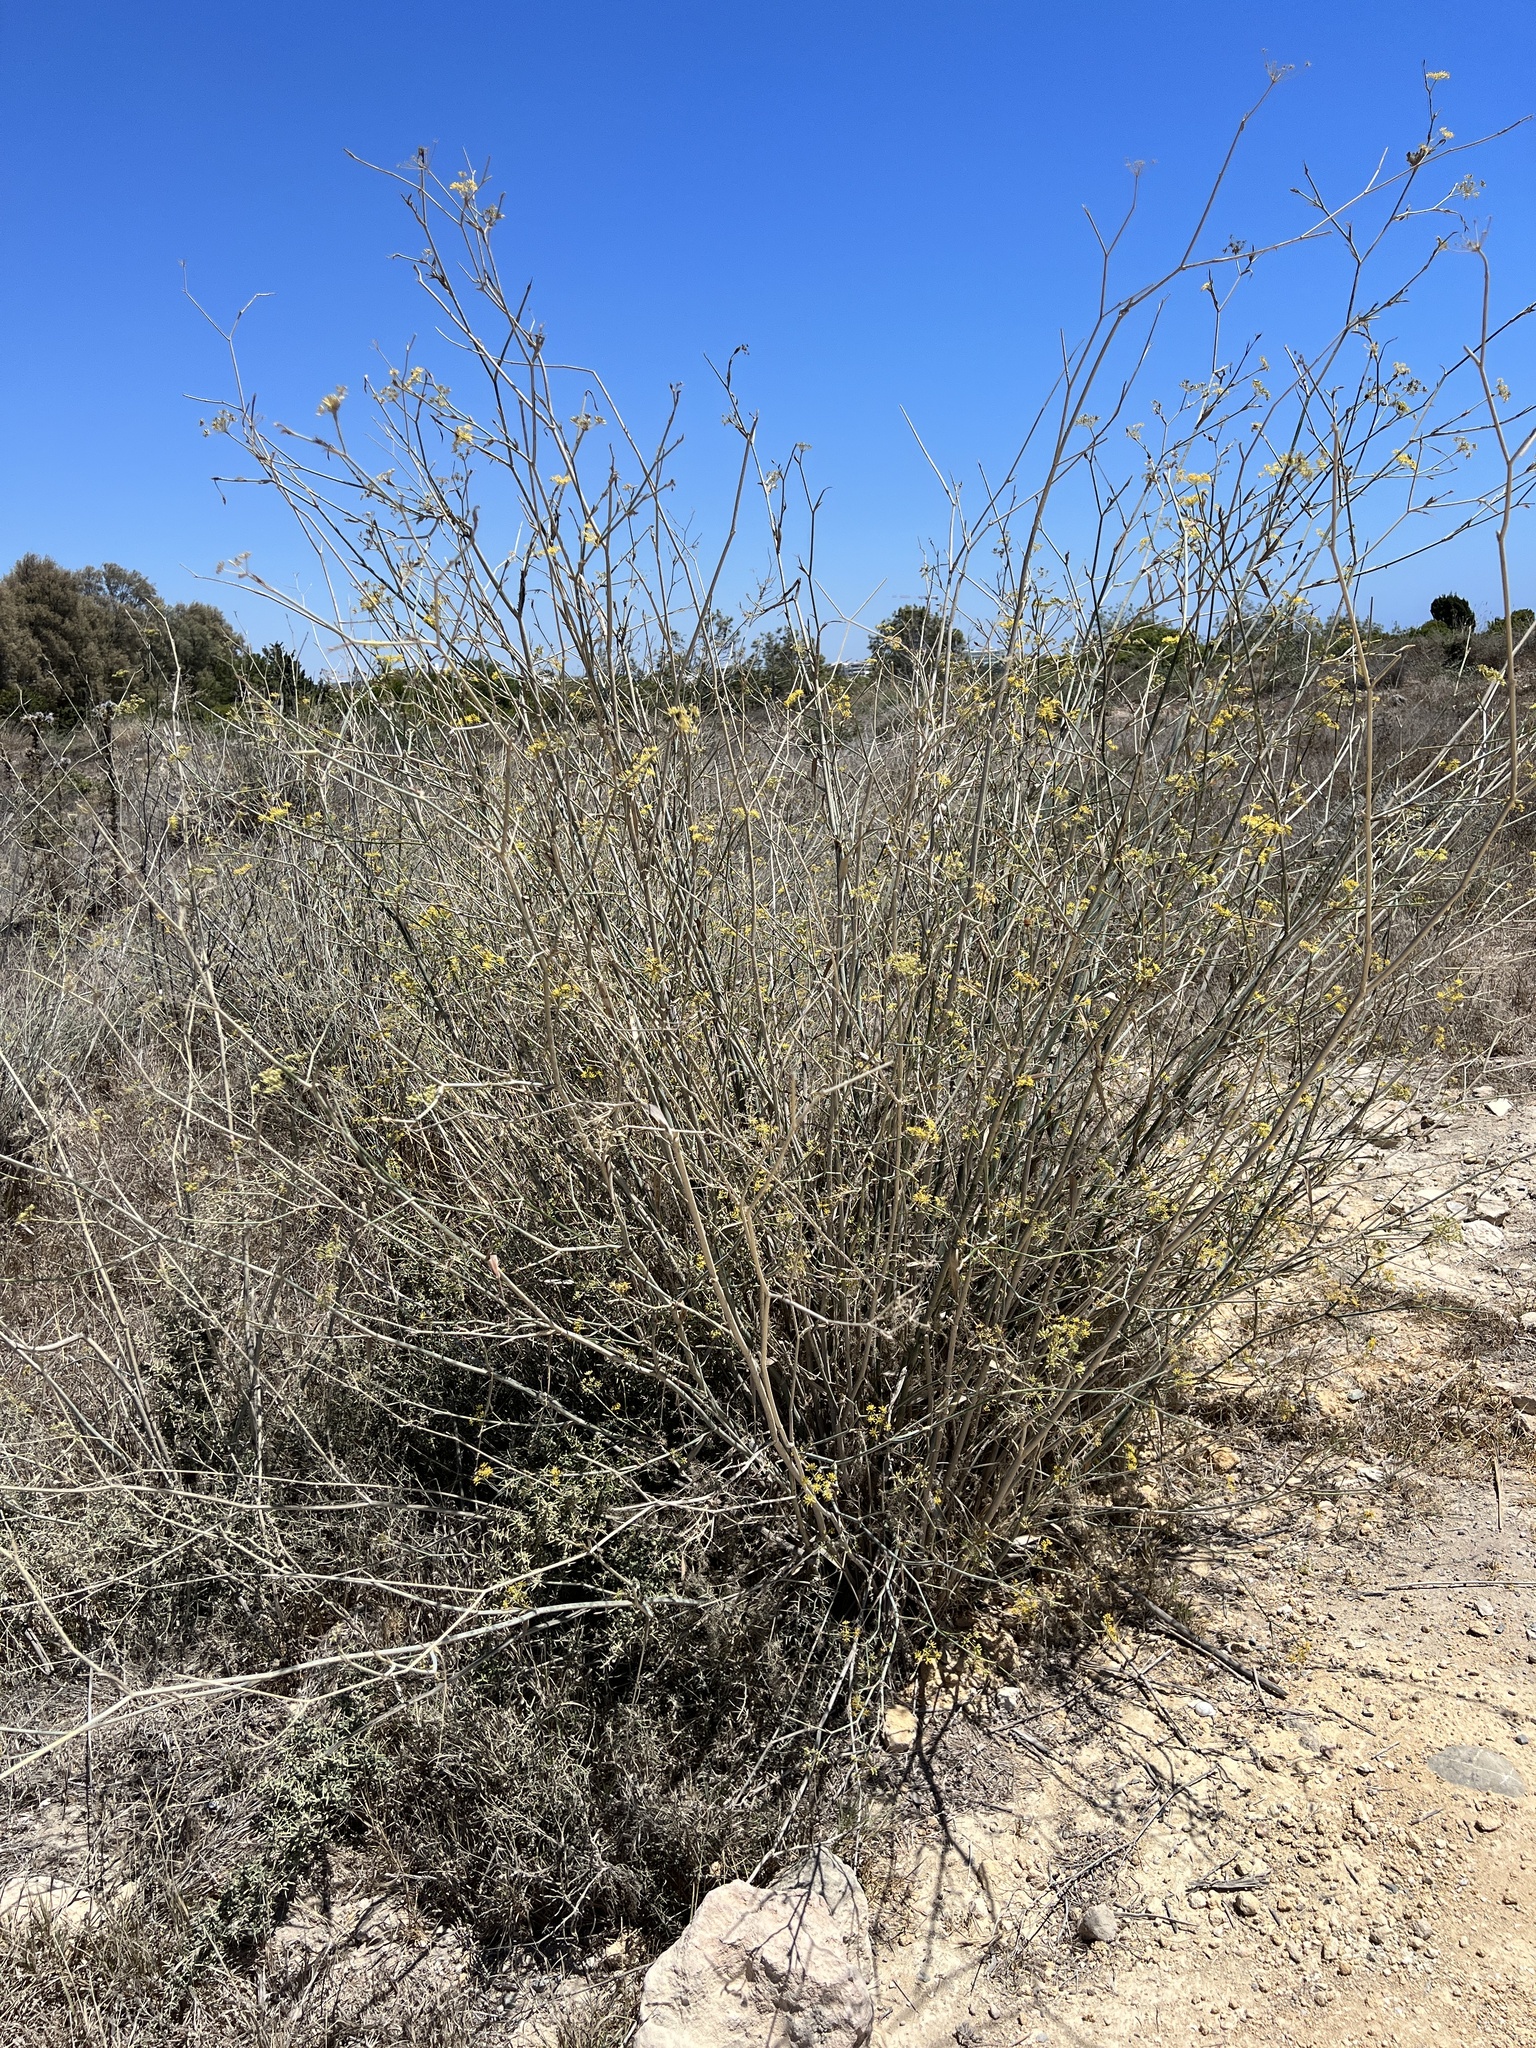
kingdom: Plantae
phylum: Tracheophyta
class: Magnoliopsida
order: Apiales
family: Apiaceae
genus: Foeniculum
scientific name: Foeniculum vulgare
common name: Fennel
